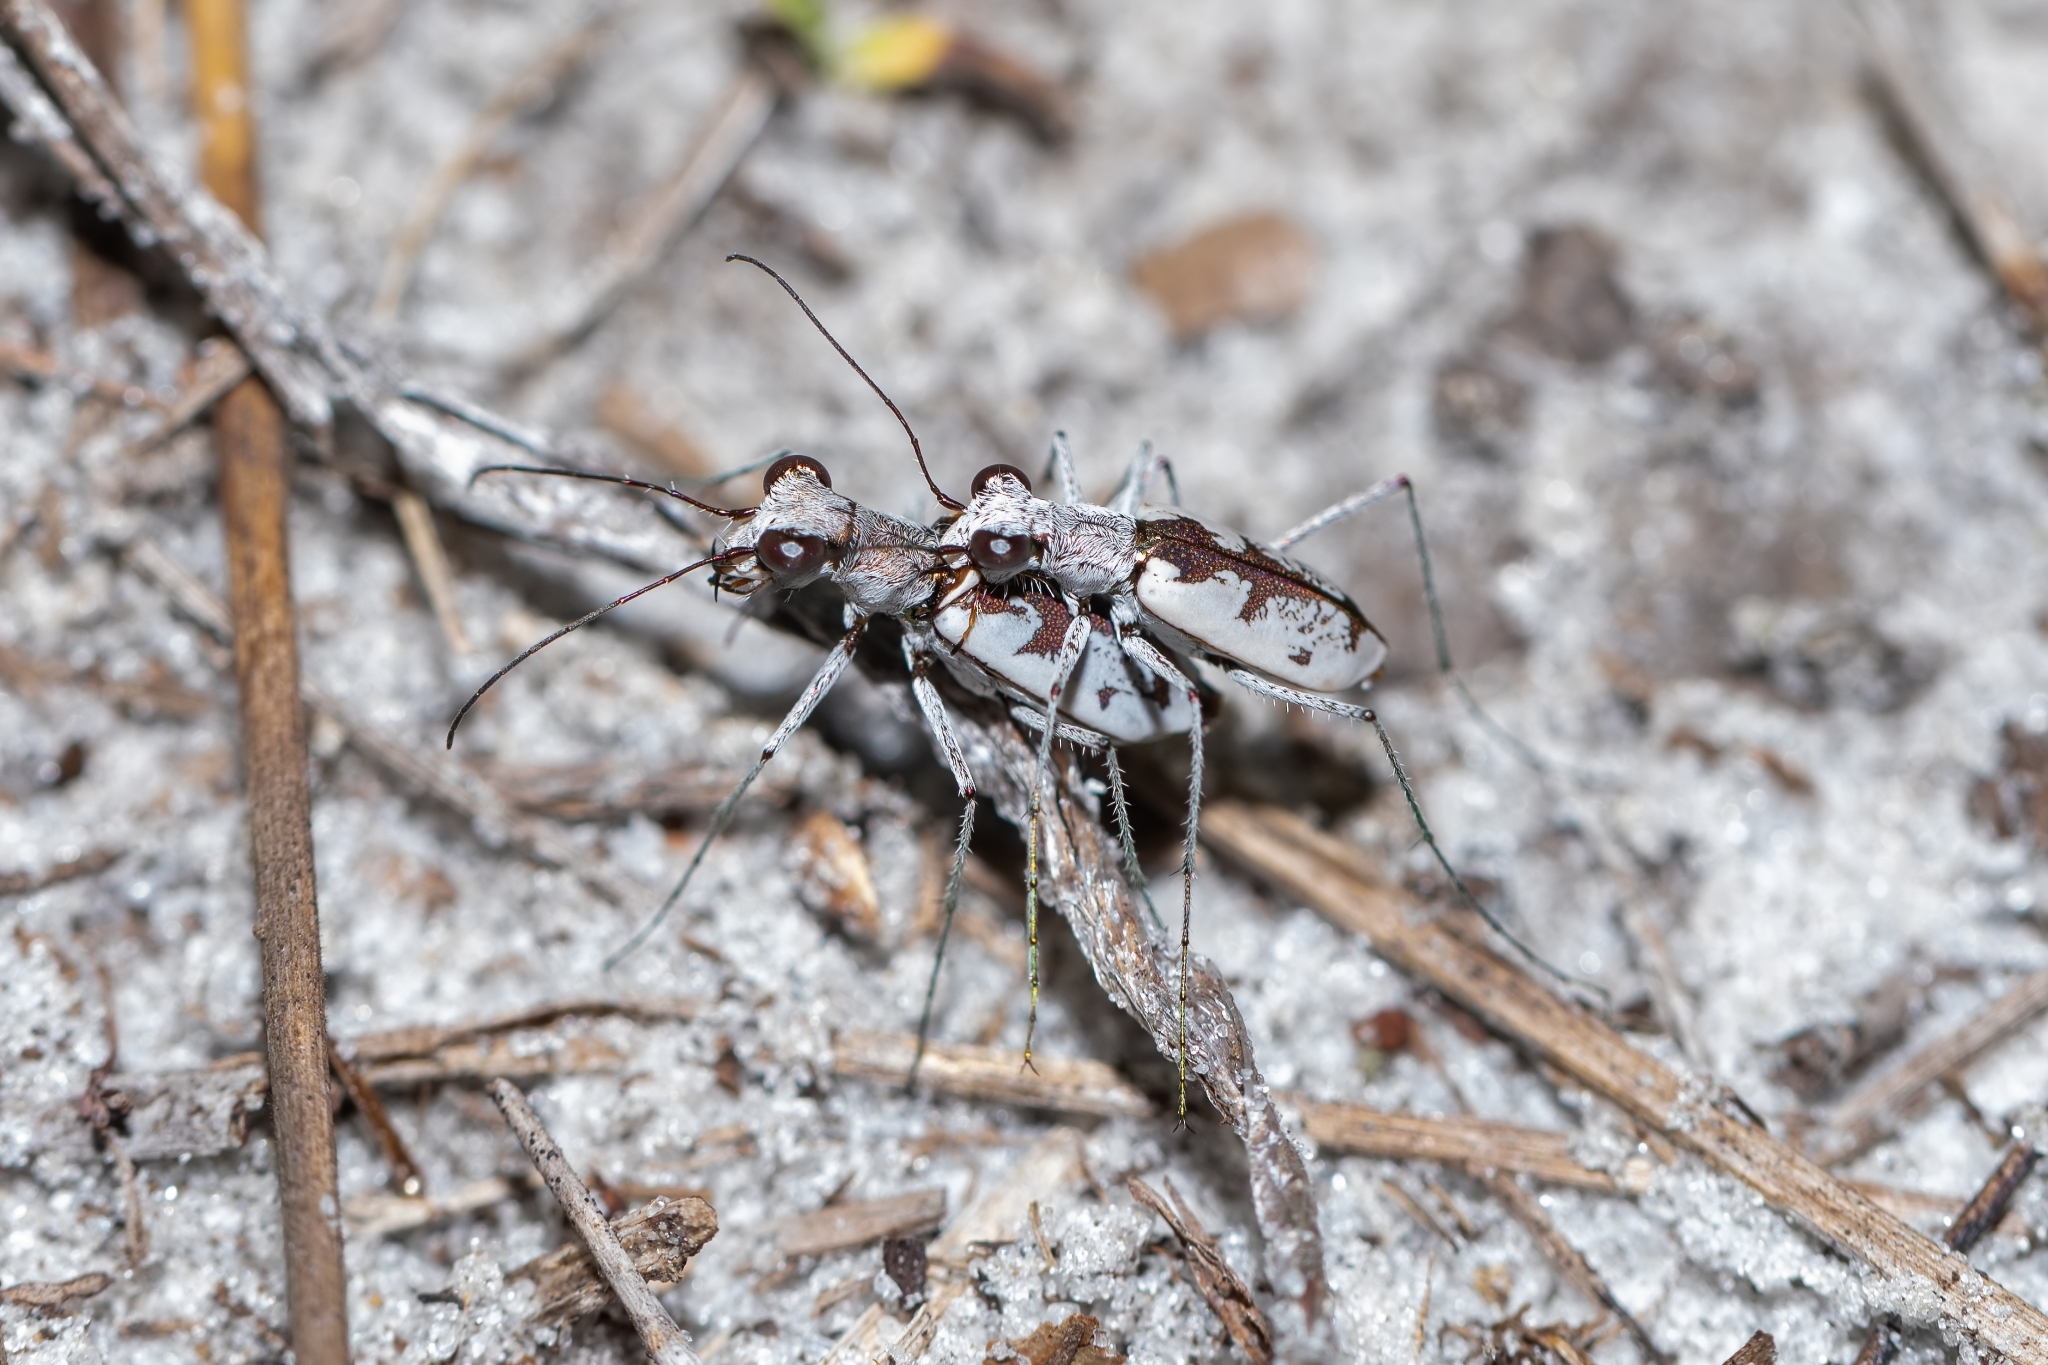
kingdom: Animalia
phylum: Arthropoda
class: Insecta
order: Coleoptera
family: Carabidae
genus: Ellipsoptera
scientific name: Ellipsoptera hirtilabris
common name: Moustached tiger beetle
